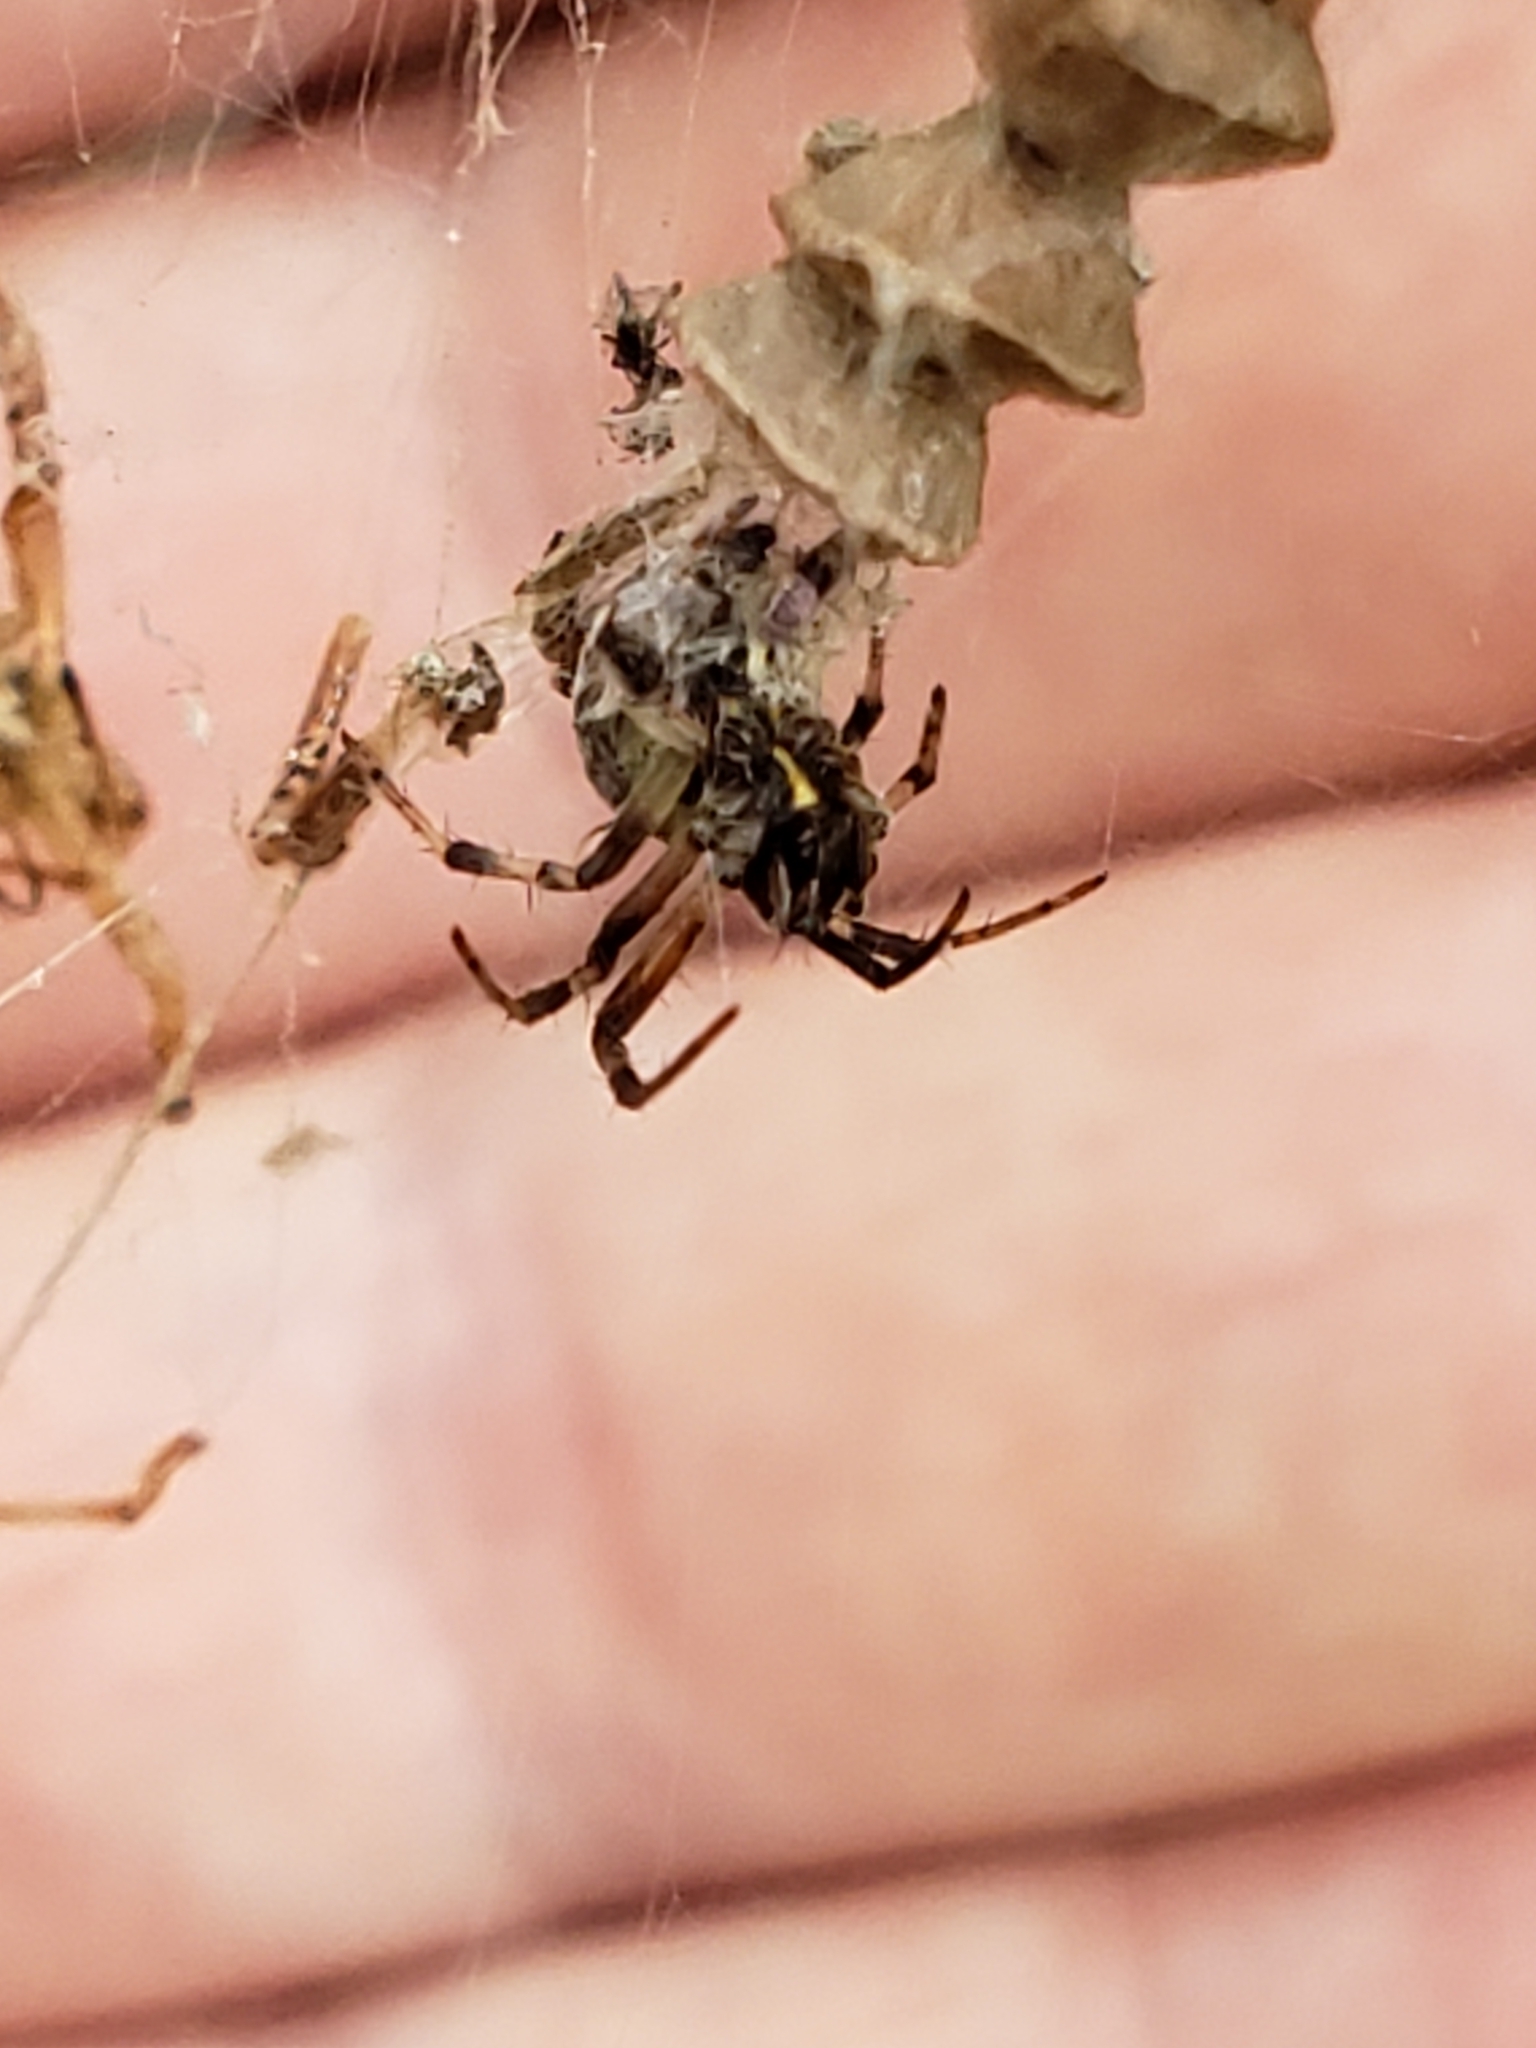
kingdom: Animalia
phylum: Arthropoda
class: Arachnida
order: Araneae
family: Araneidae
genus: Metepeira
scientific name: Metepeira labyrinthea
